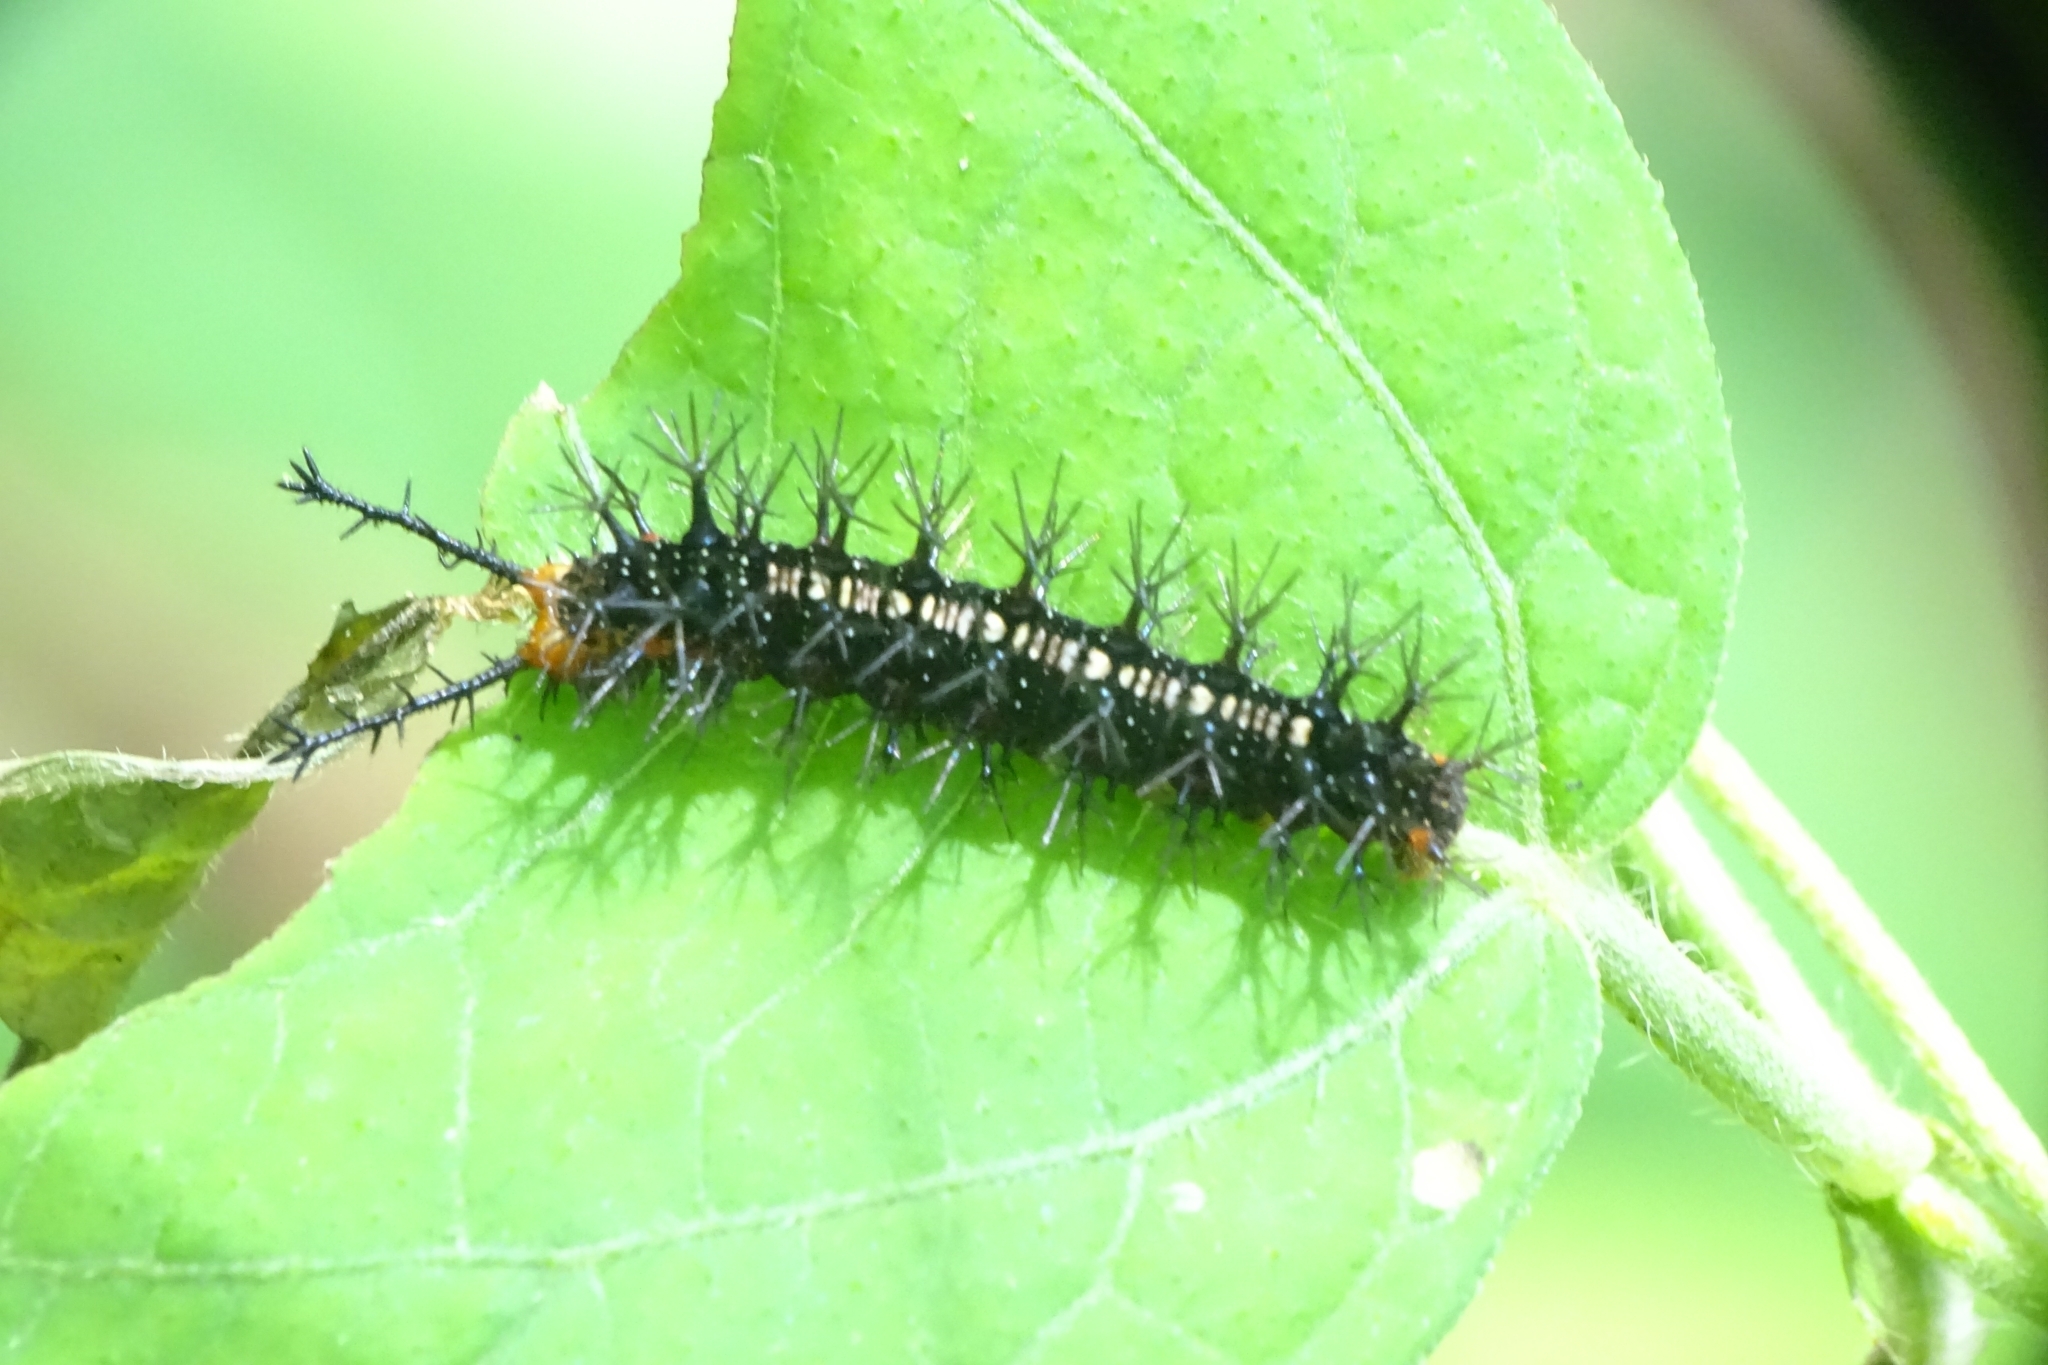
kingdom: Animalia
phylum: Arthropoda
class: Insecta
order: Lepidoptera
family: Nymphalidae
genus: Ariadne
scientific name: Ariadne ariadne
